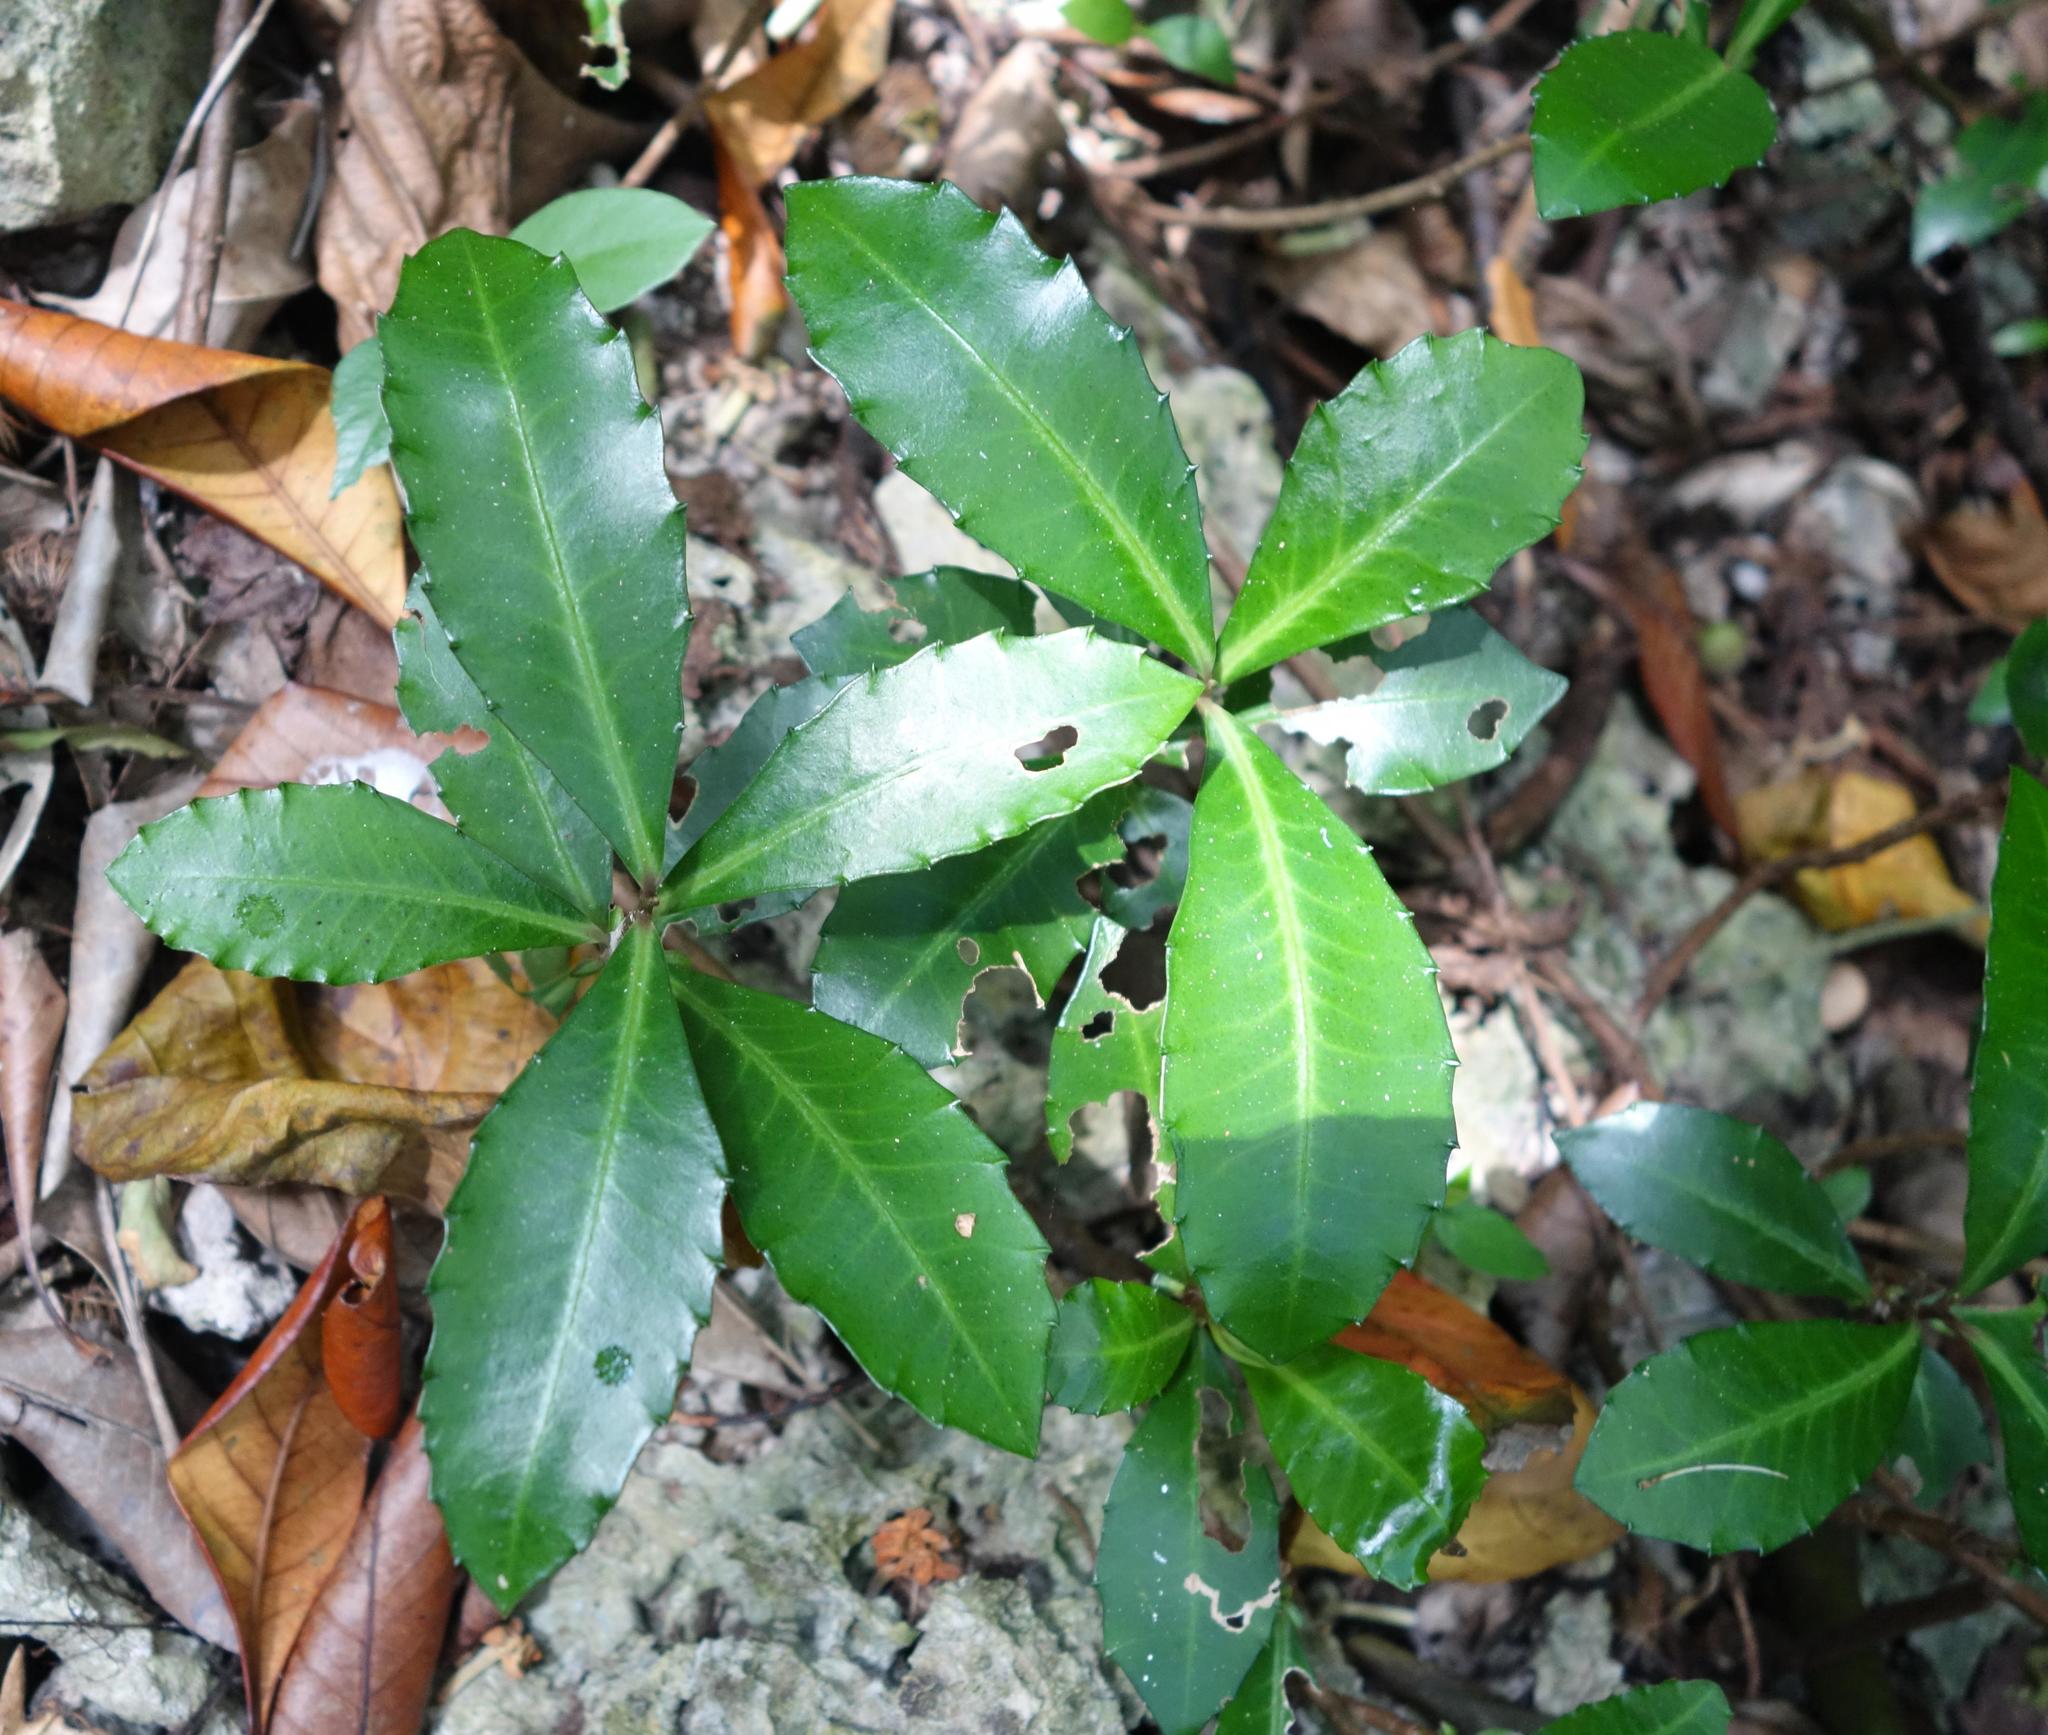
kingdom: Plantae
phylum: Tracheophyta
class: Magnoliopsida
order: Ericales
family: Primulaceae
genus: Ardisia
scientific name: Ardisia cornudentata
